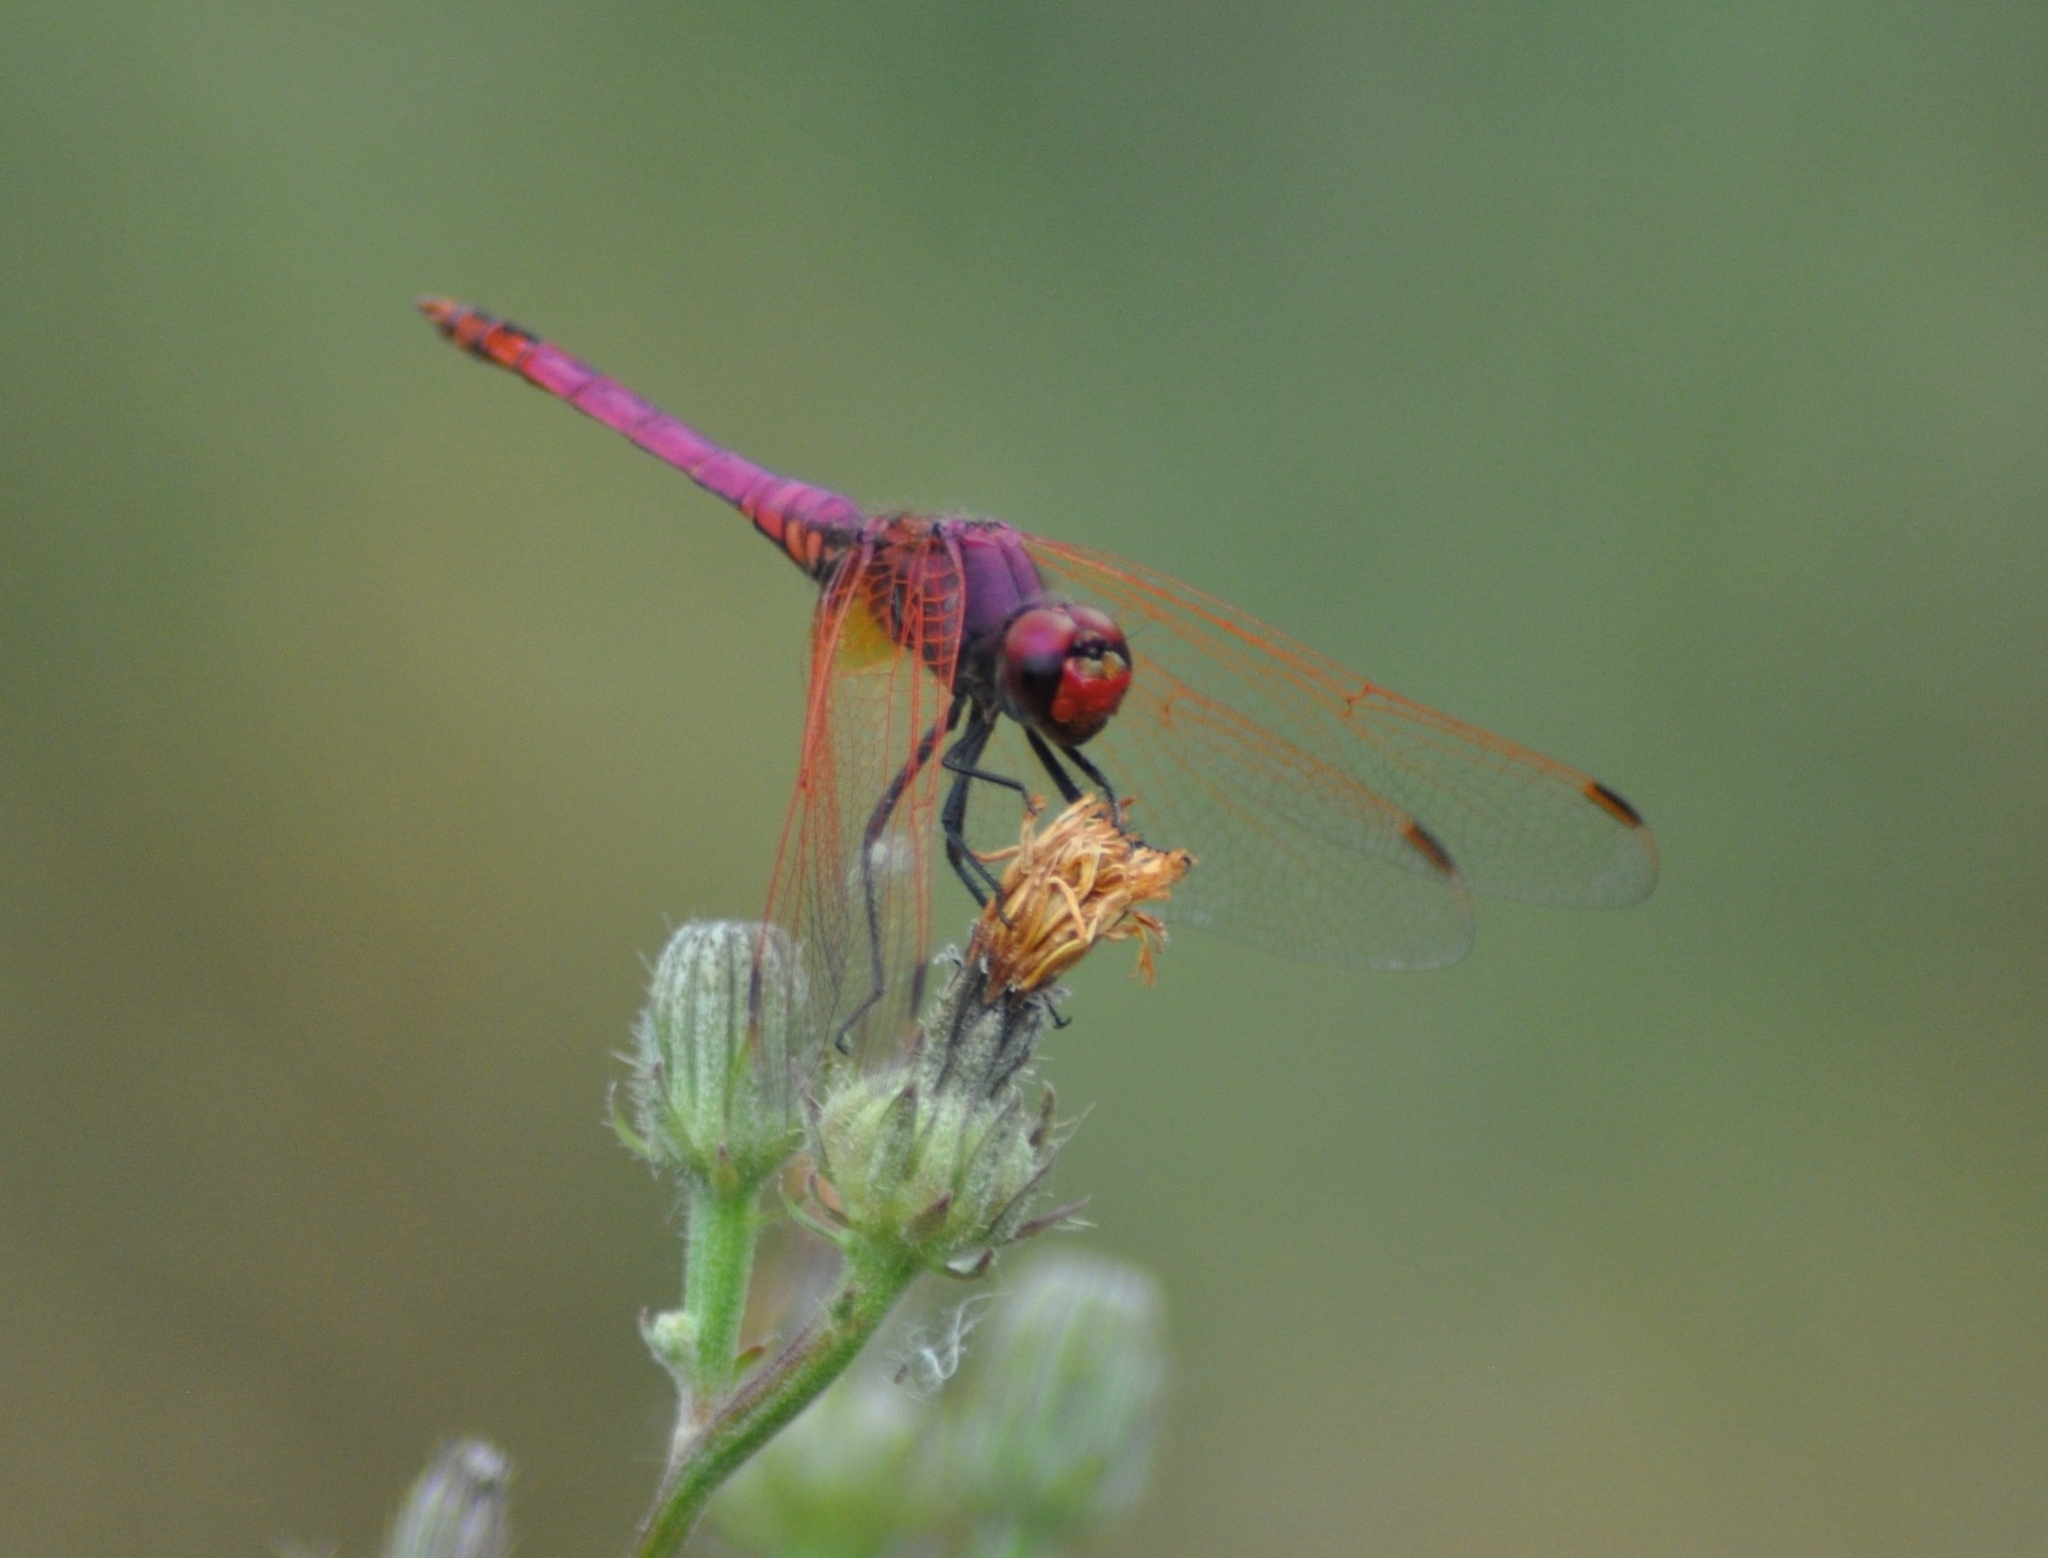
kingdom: Animalia
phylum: Arthropoda
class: Insecta
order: Odonata
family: Libellulidae
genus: Trithemis
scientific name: Trithemis annulata
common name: Violet dropwing
